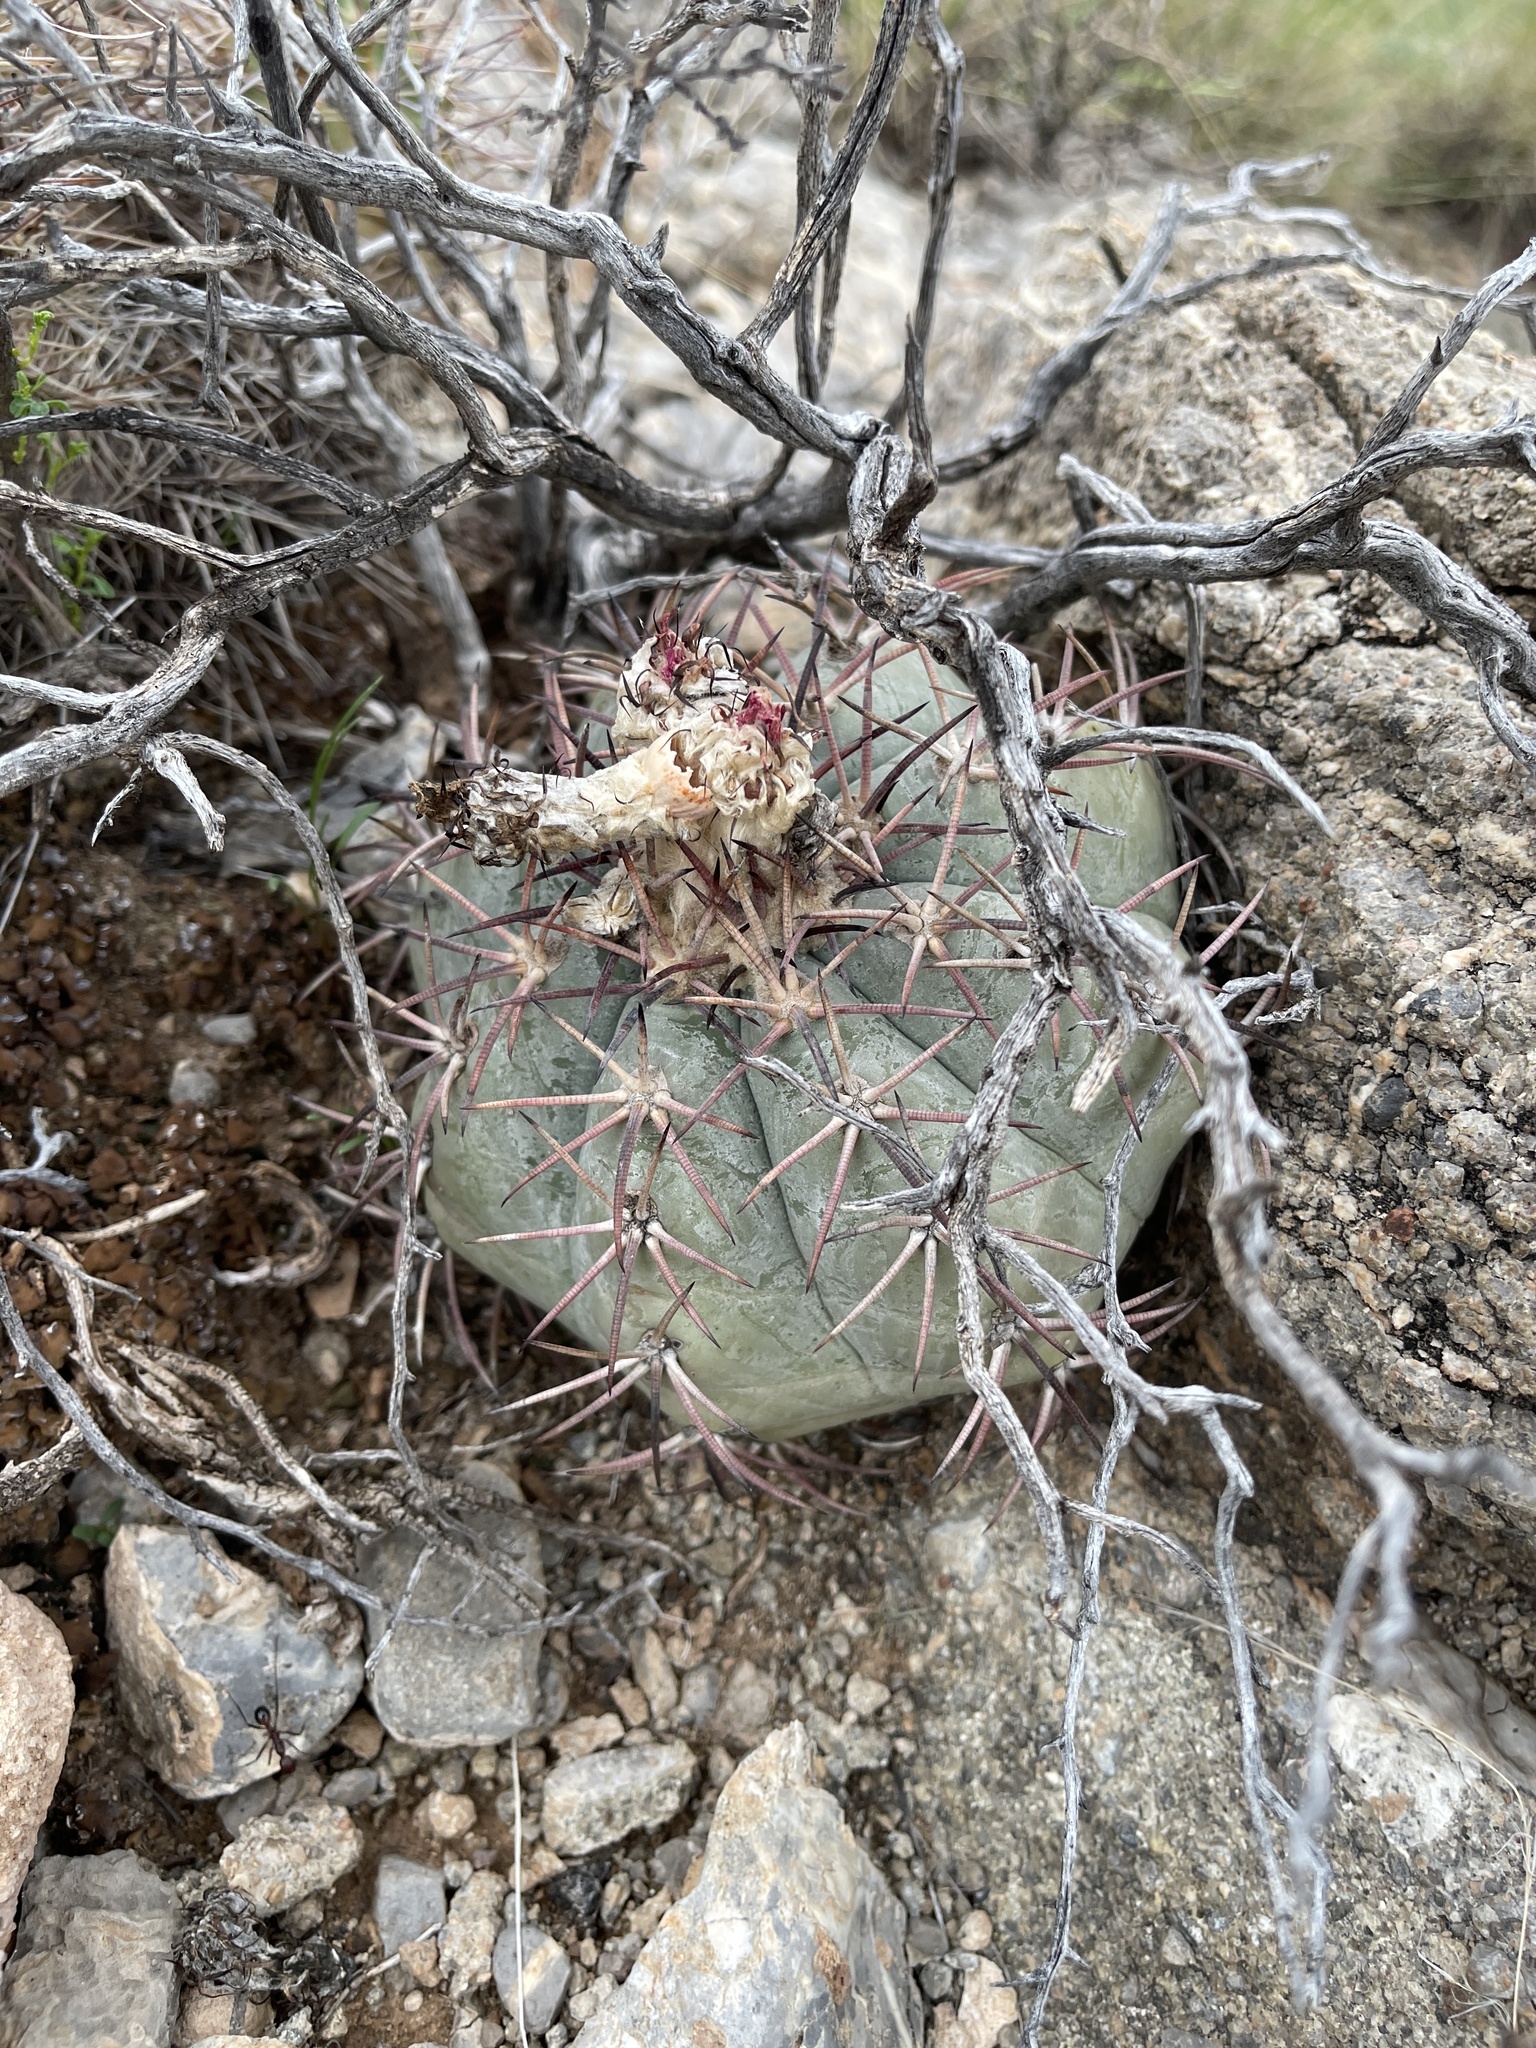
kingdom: Plantae
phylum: Tracheophyta
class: Magnoliopsida
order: Caryophyllales
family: Cactaceae
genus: Echinocactus
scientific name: Echinocactus horizonthalonius
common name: Devilshead
